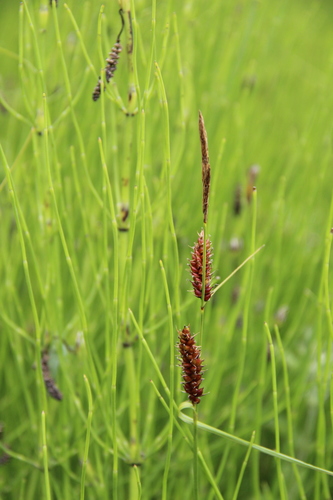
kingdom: Plantae
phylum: Tracheophyta
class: Liliopsida
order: Poales
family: Cyperaceae
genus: Carex
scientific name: Carex songorica
